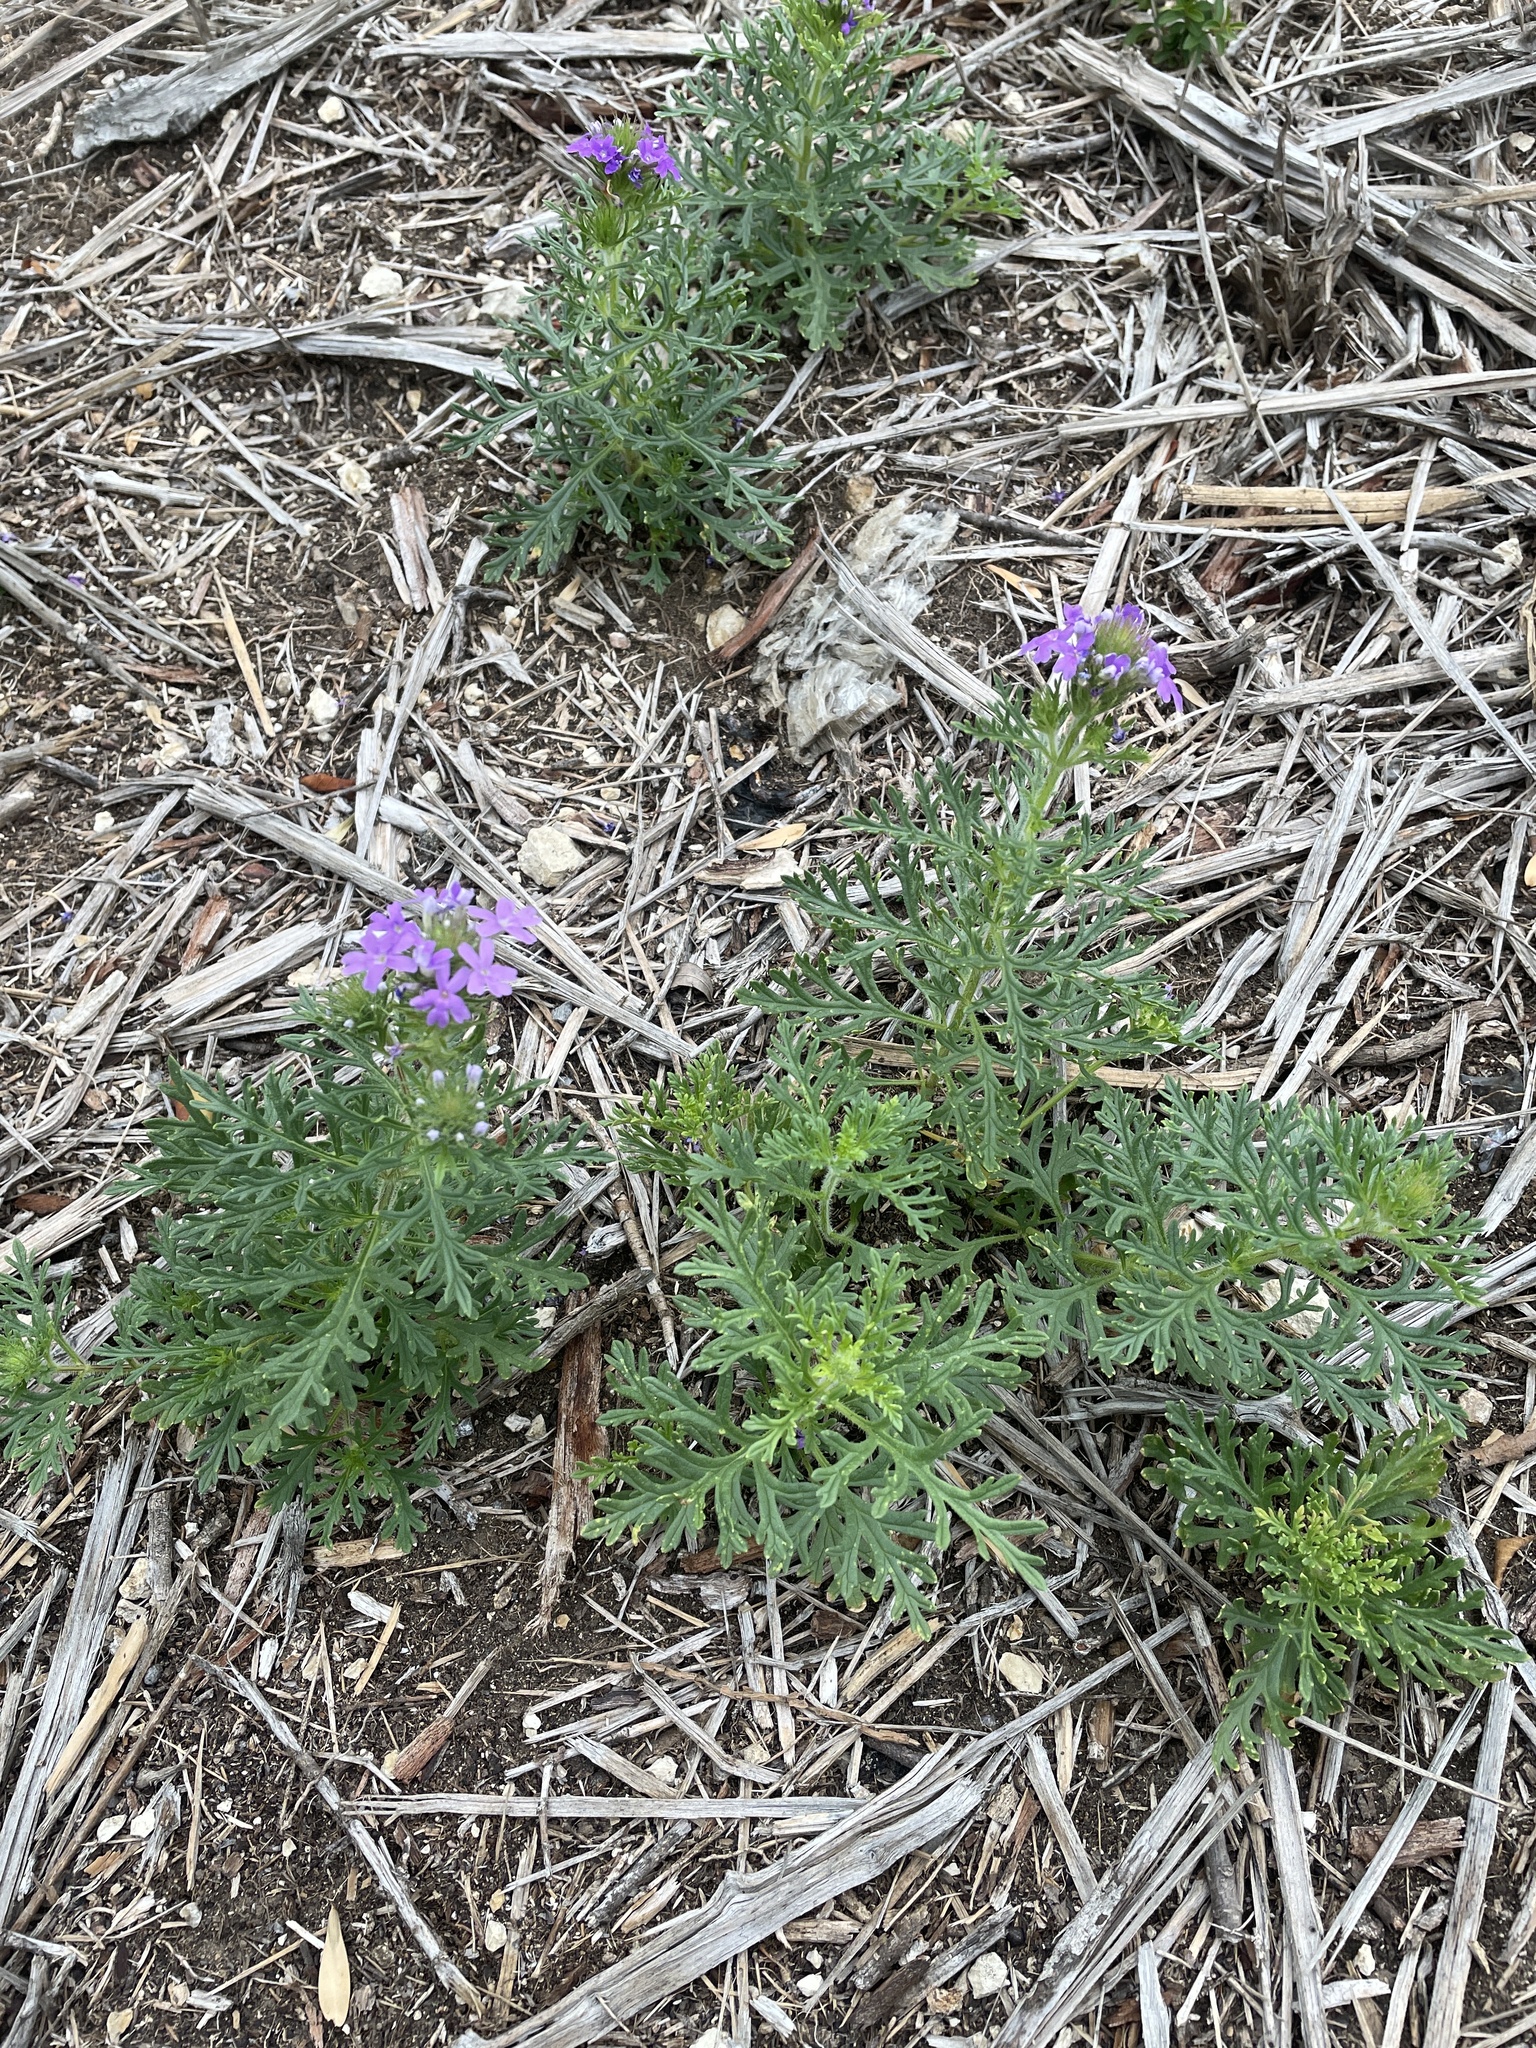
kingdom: Plantae
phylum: Tracheophyta
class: Magnoliopsida
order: Lamiales
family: Verbenaceae
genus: Verbena
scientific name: Verbena bipinnatifida
